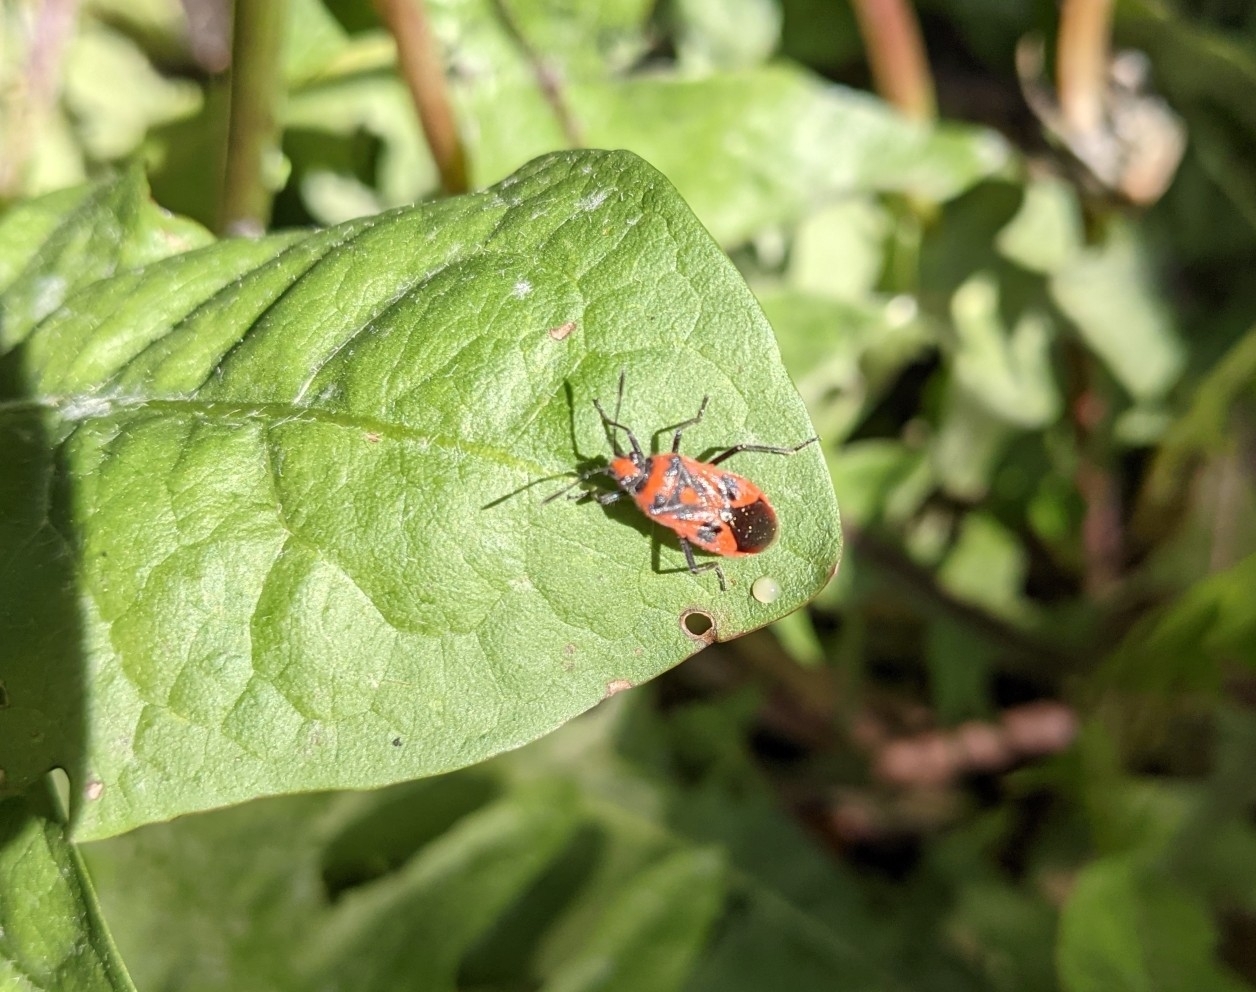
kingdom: Animalia
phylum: Arthropoda
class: Insecta
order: Hemiptera
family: Rhopalidae
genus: Corizus
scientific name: Corizus hyoscyami
